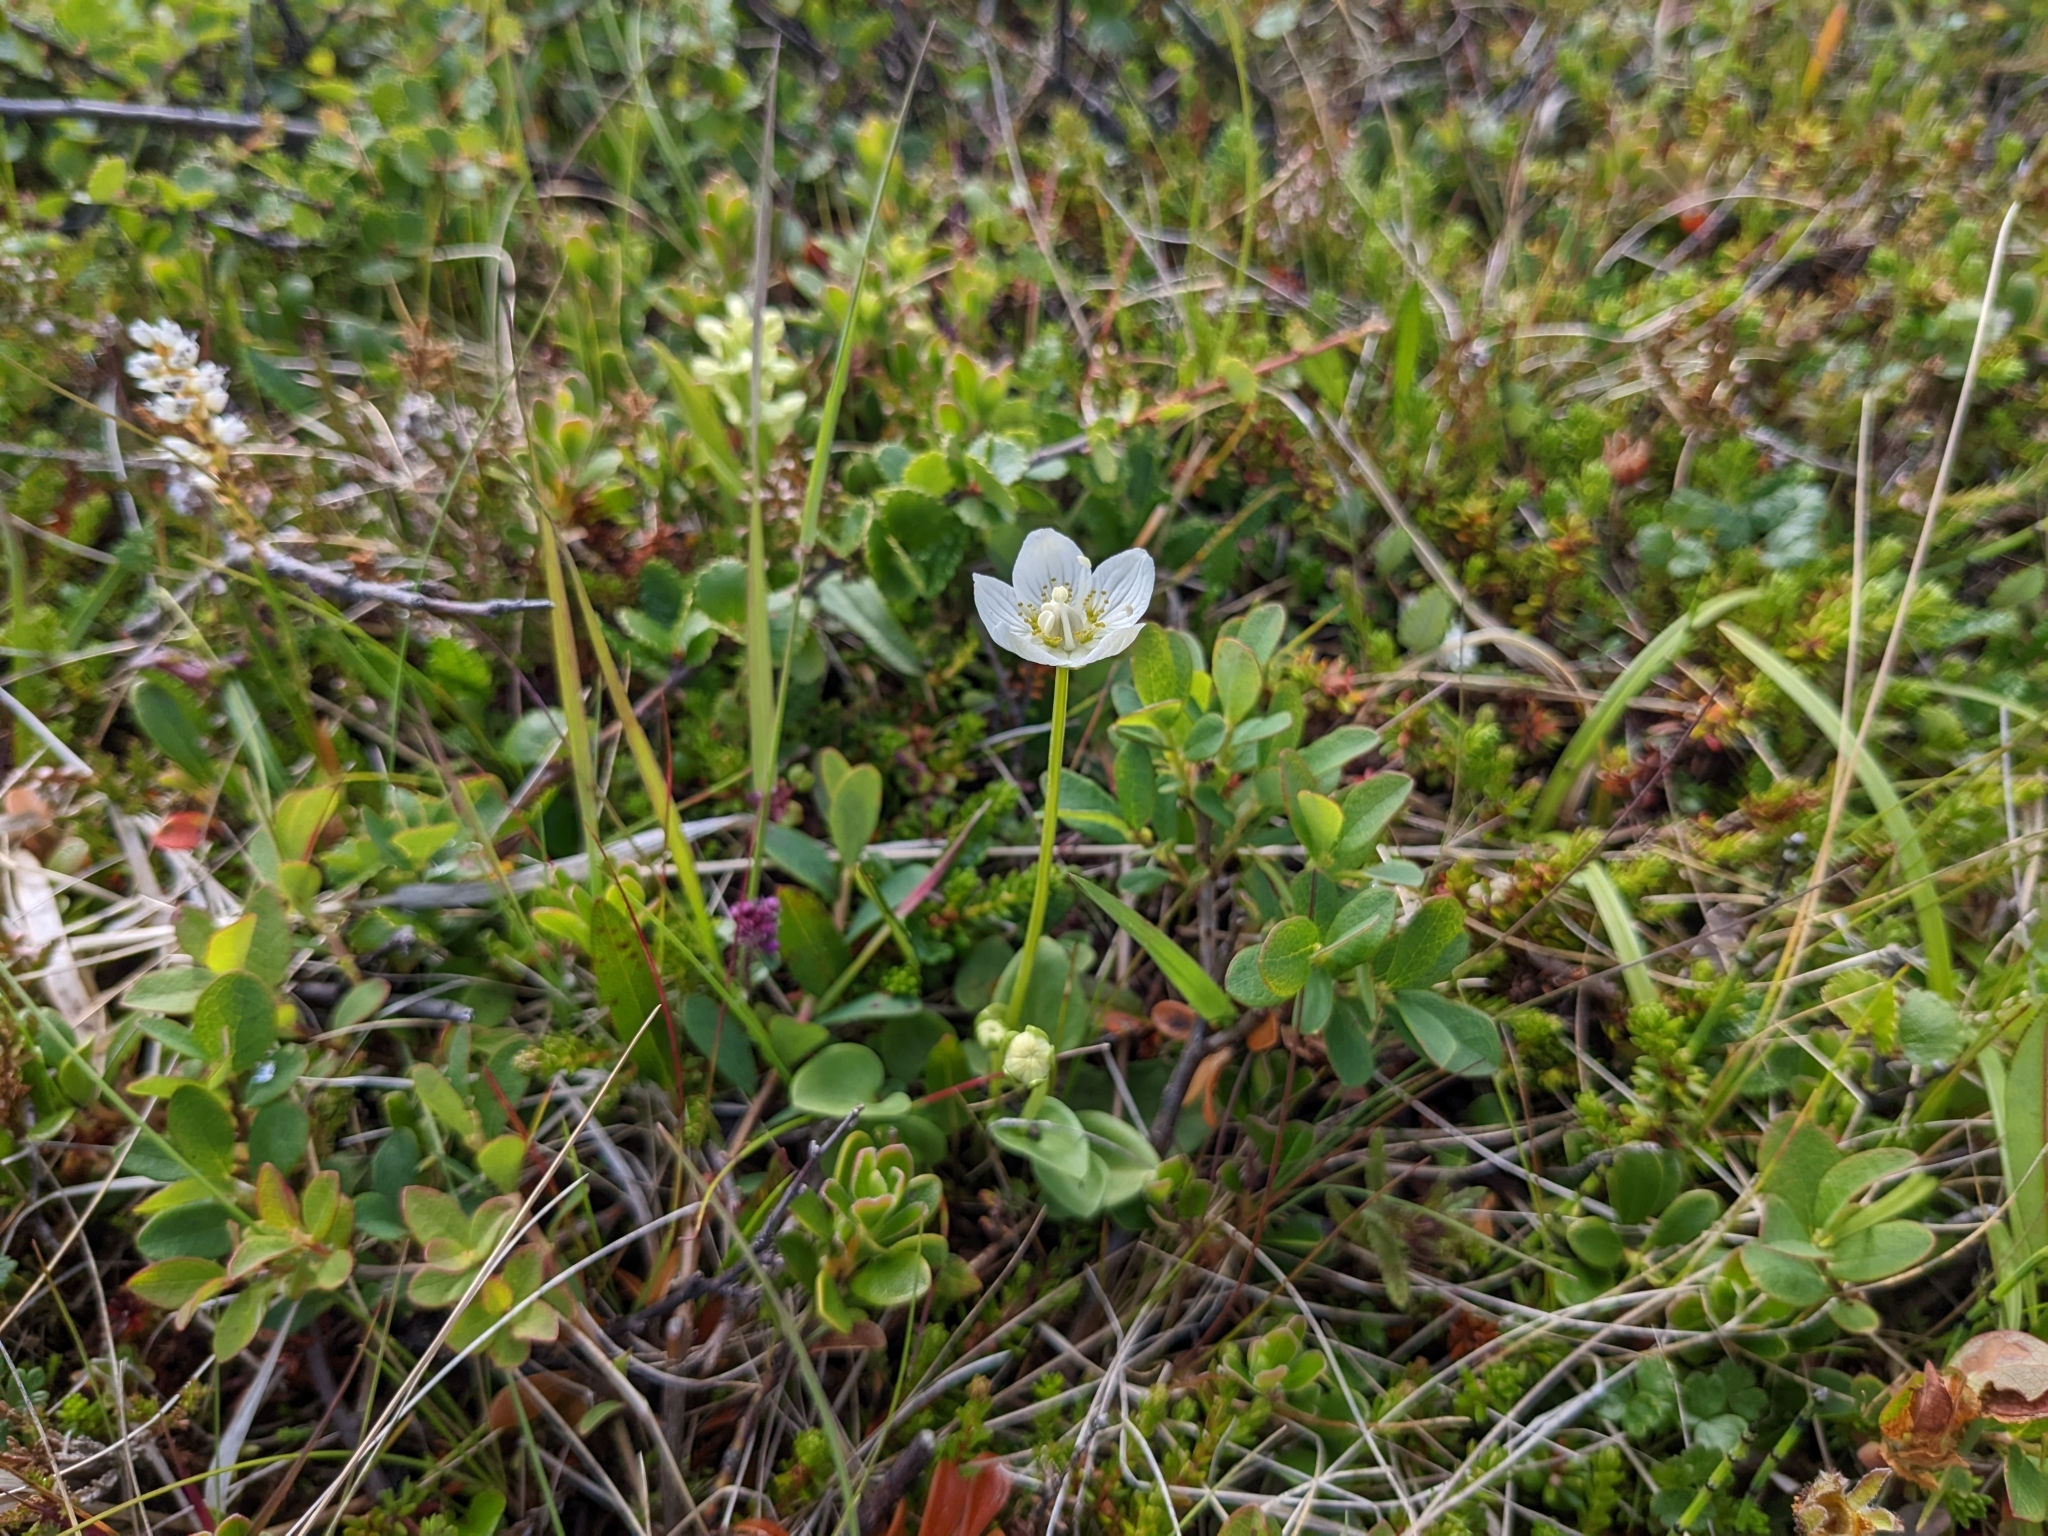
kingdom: Plantae
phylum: Tracheophyta
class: Magnoliopsida
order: Celastrales
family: Parnassiaceae
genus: Parnassia
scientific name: Parnassia palustris
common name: Grass-of-parnassus
